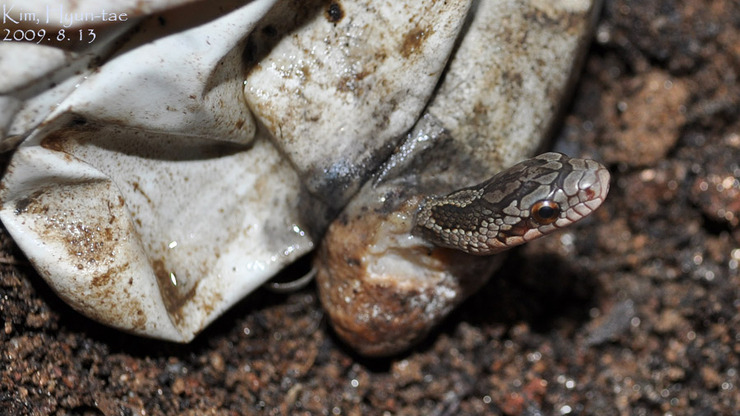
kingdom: Animalia
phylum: Chordata
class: Squamata
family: Colubridae
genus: Elaphe
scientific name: Elaphe dione
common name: Dione ratsnake
